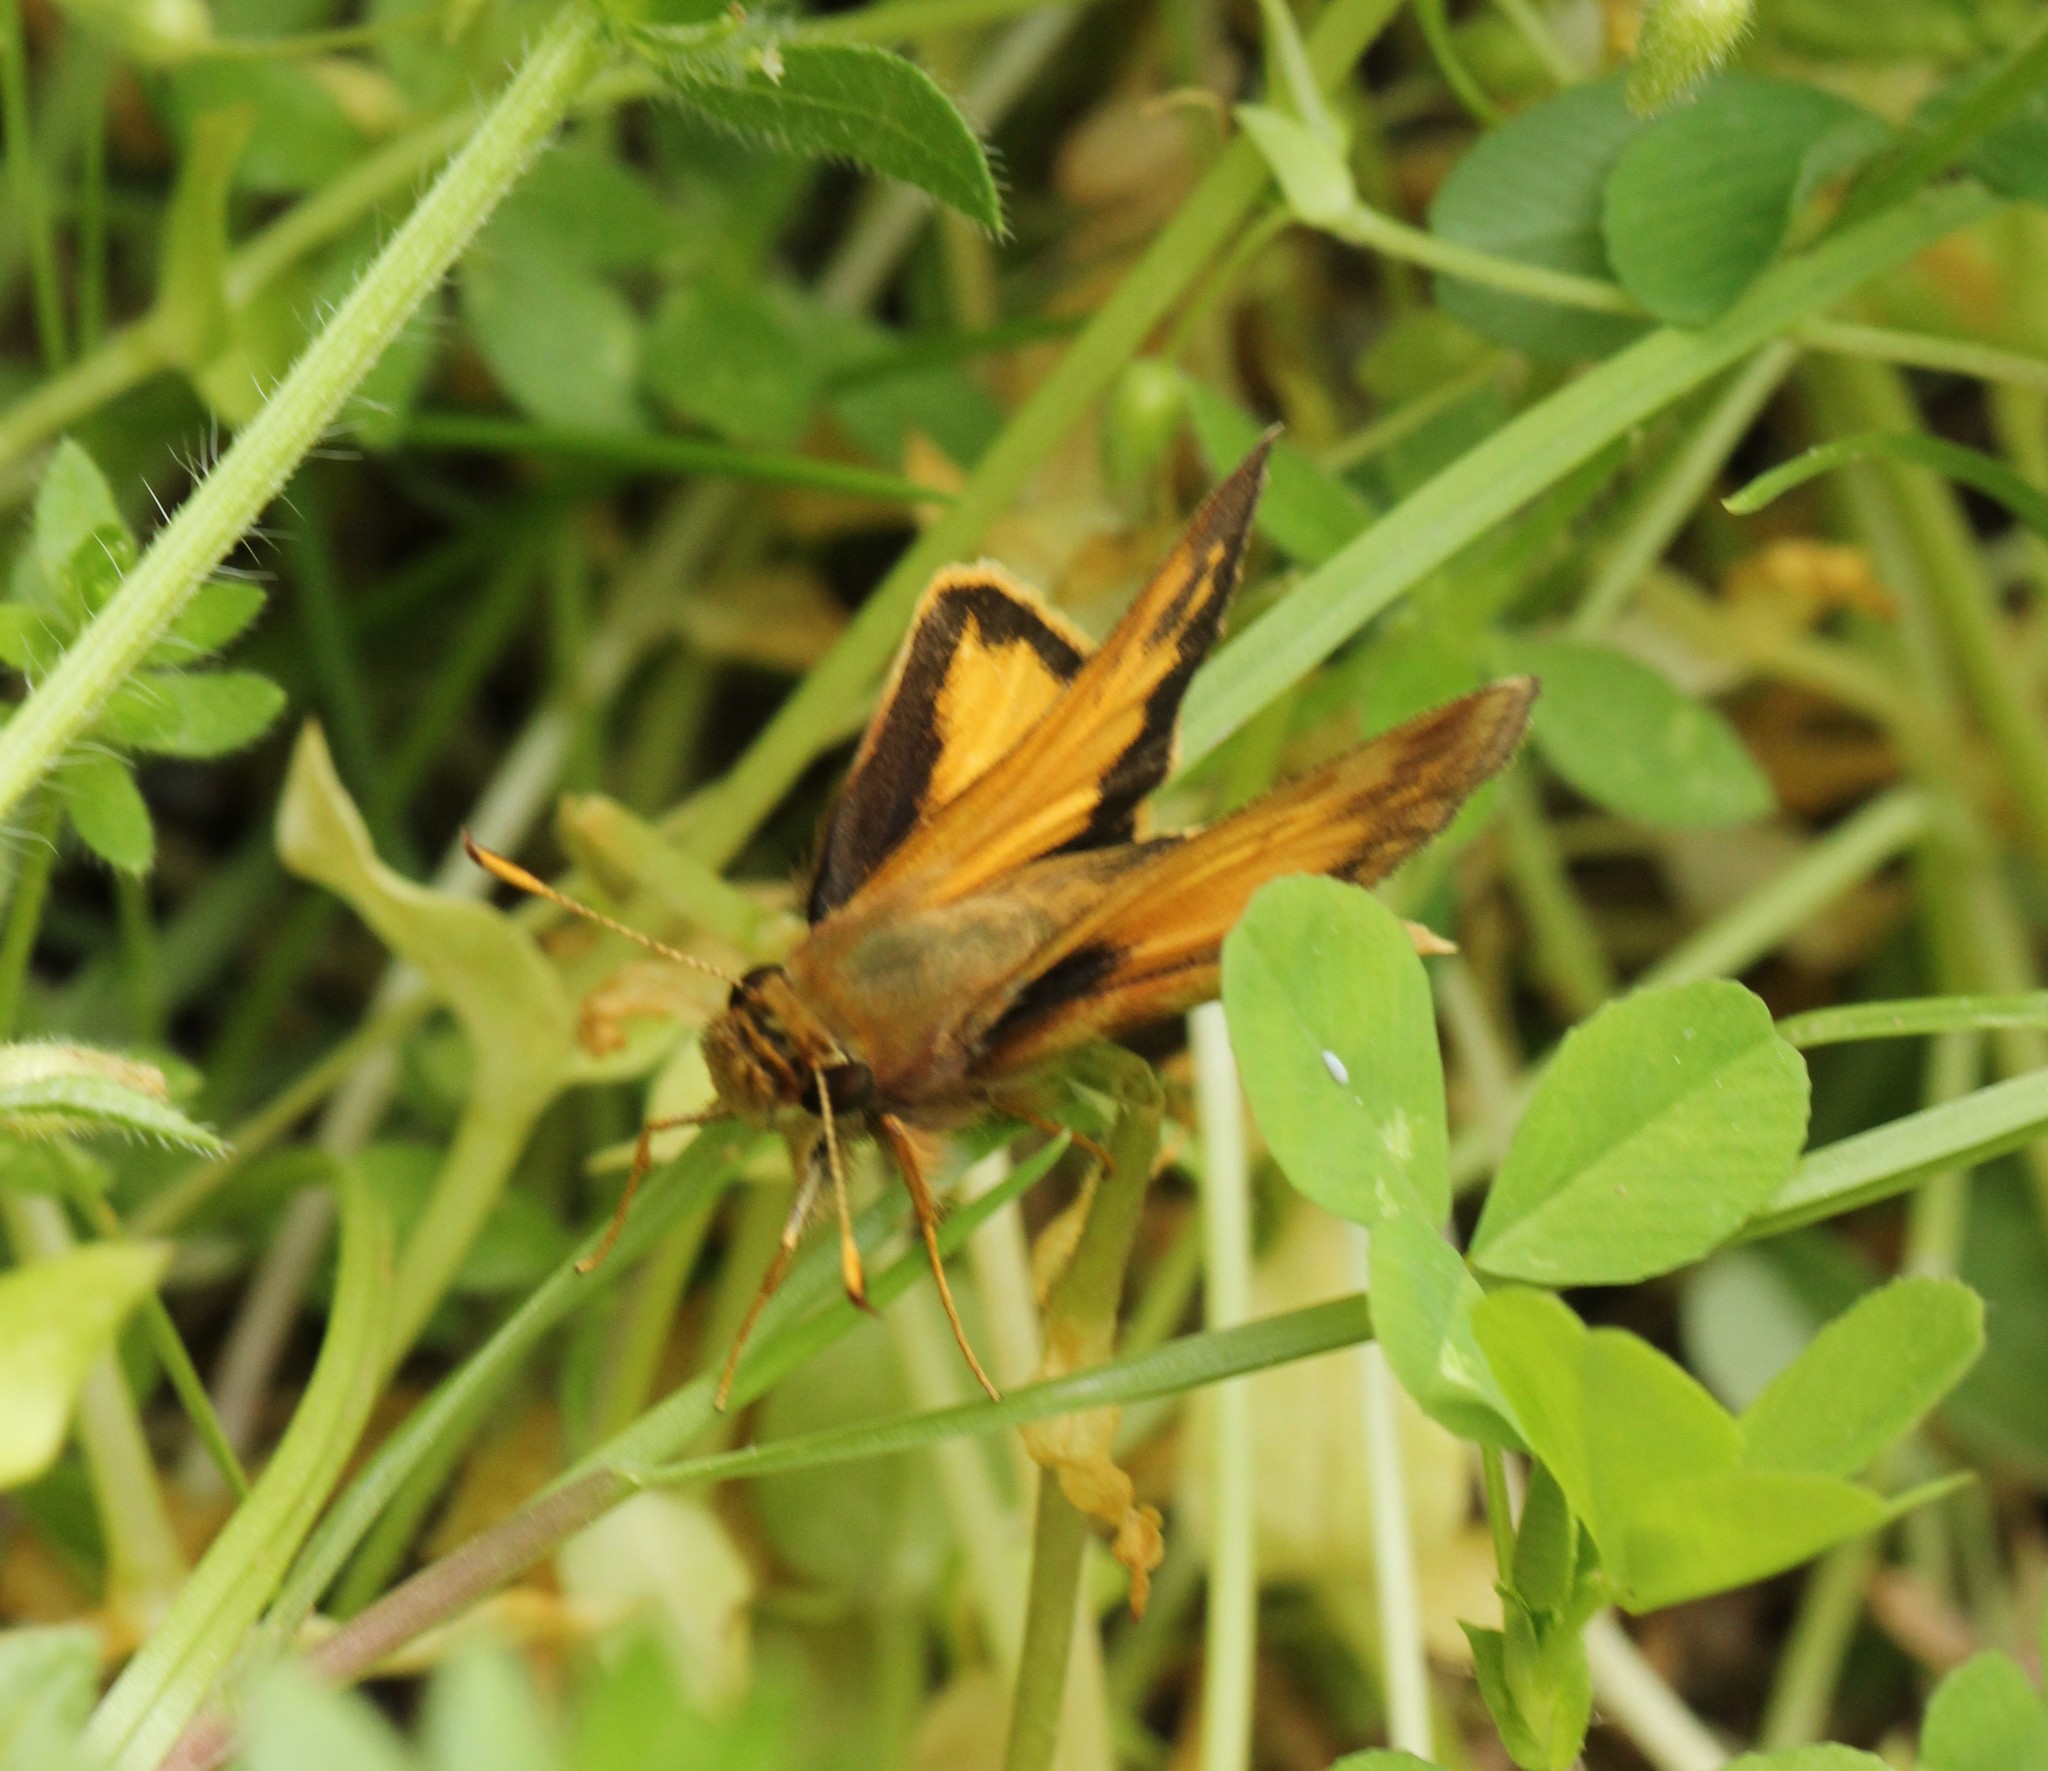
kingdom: Animalia
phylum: Arthropoda
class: Insecta
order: Lepidoptera
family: Hesperiidae
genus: Lon
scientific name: Lon zabulon
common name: Zabulon skipper
